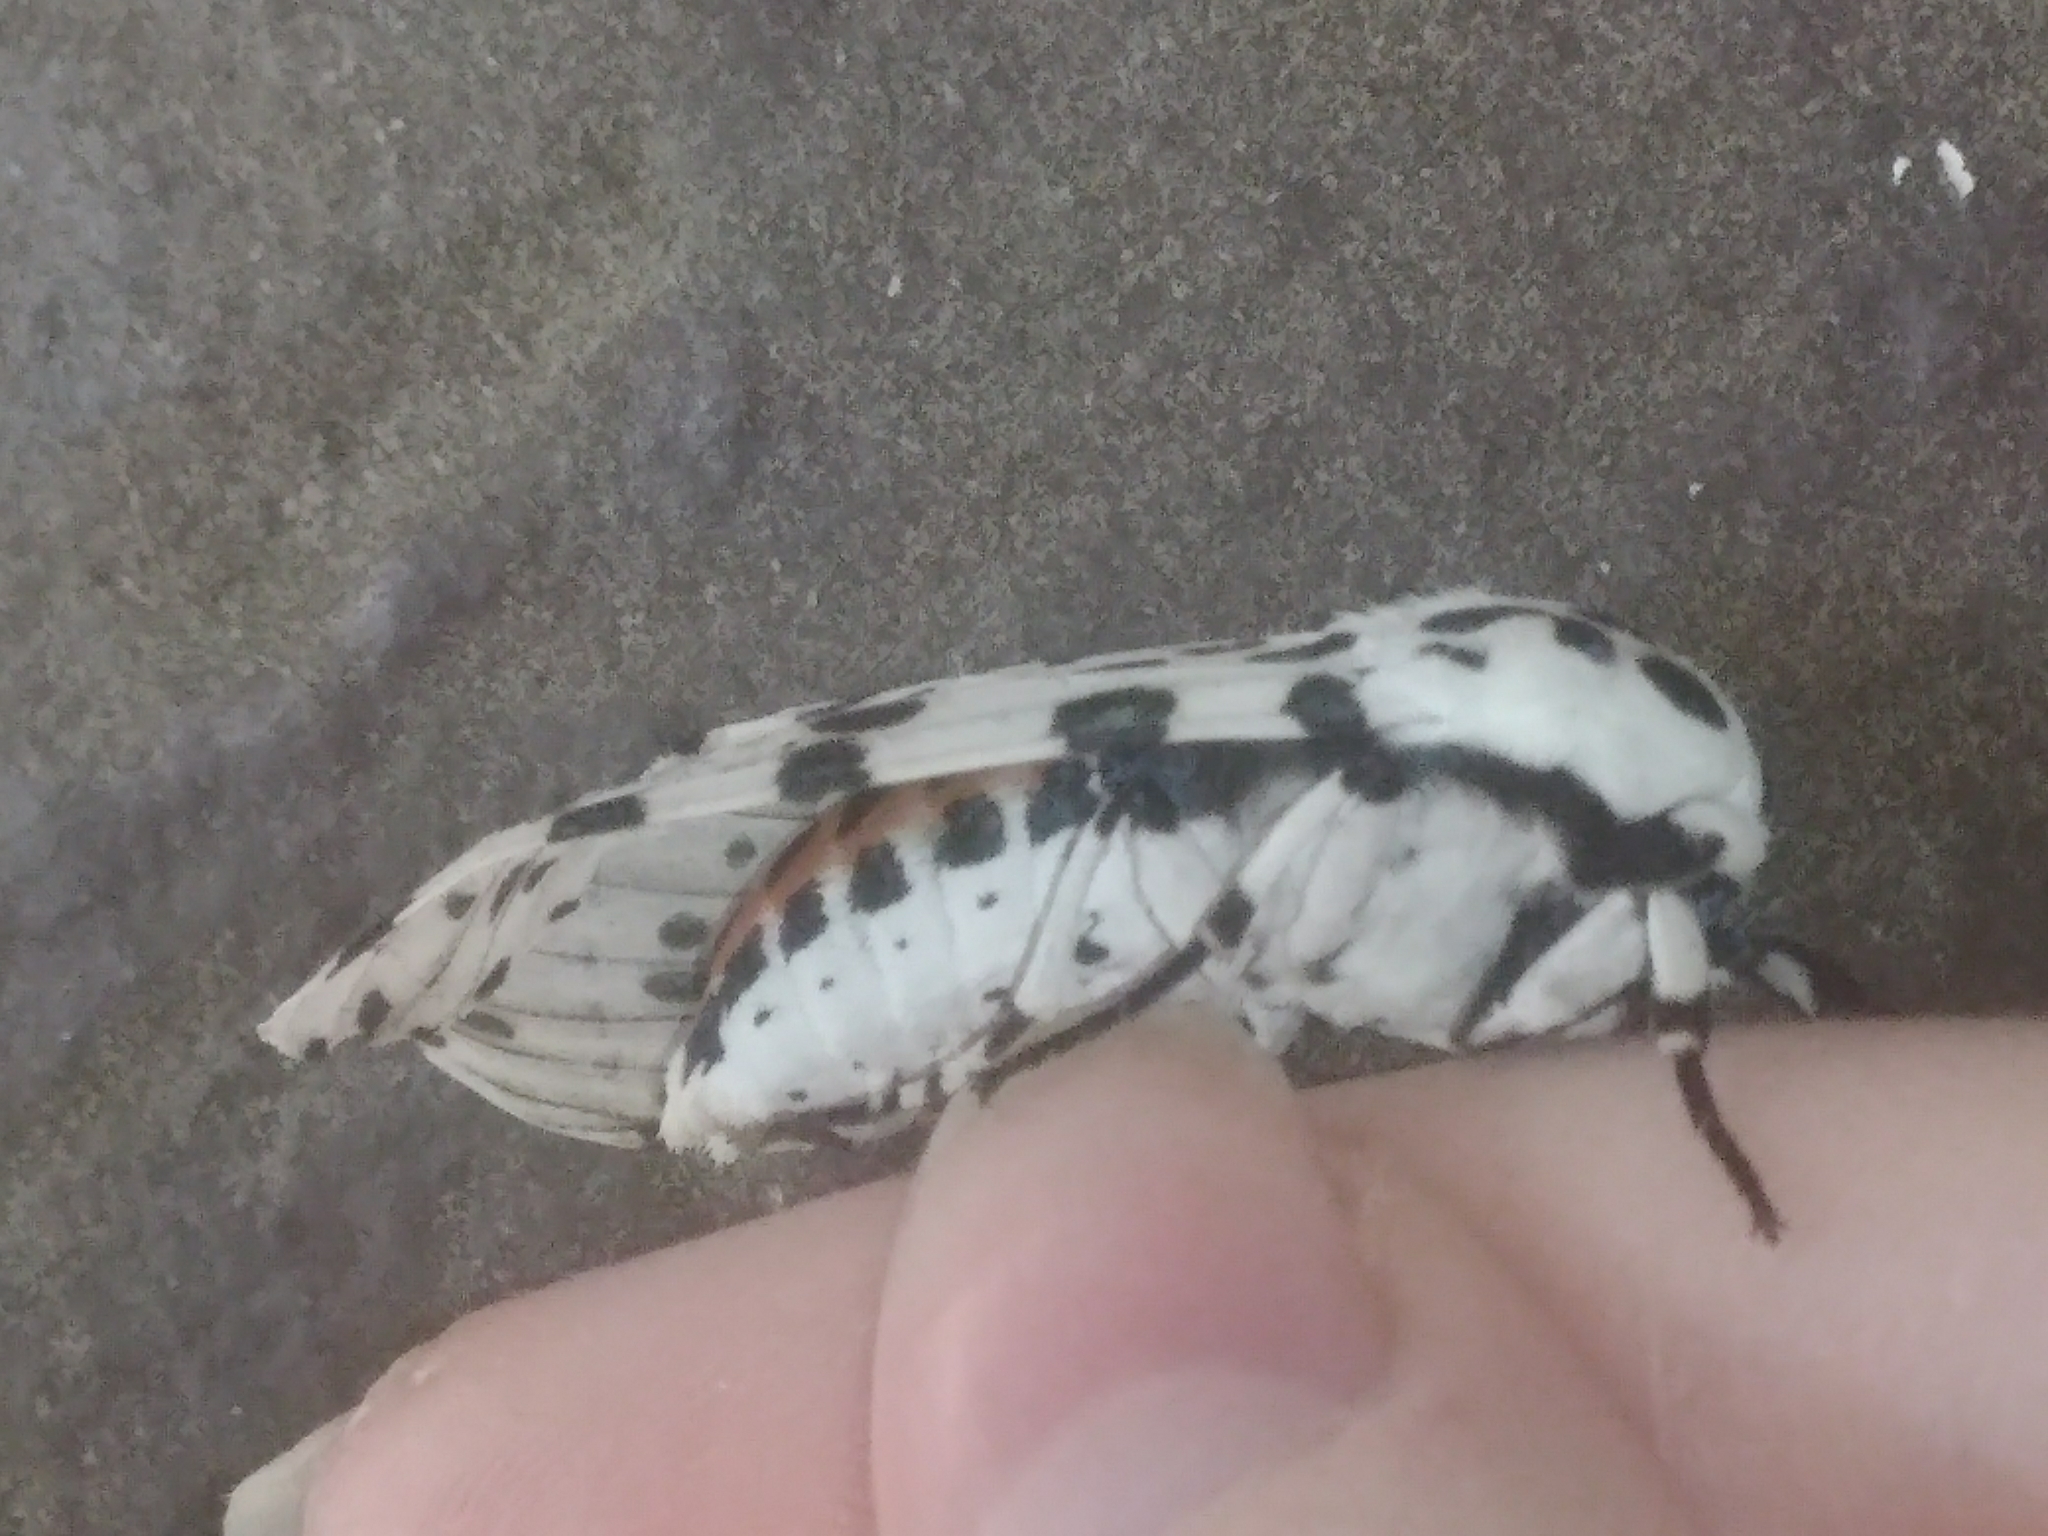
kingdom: Animalia
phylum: Arthropoda
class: Insecta
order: Lepidoptera
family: Erebidae
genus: Hypercompe
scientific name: Hypercompe scribonia
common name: Giant leopard moth
